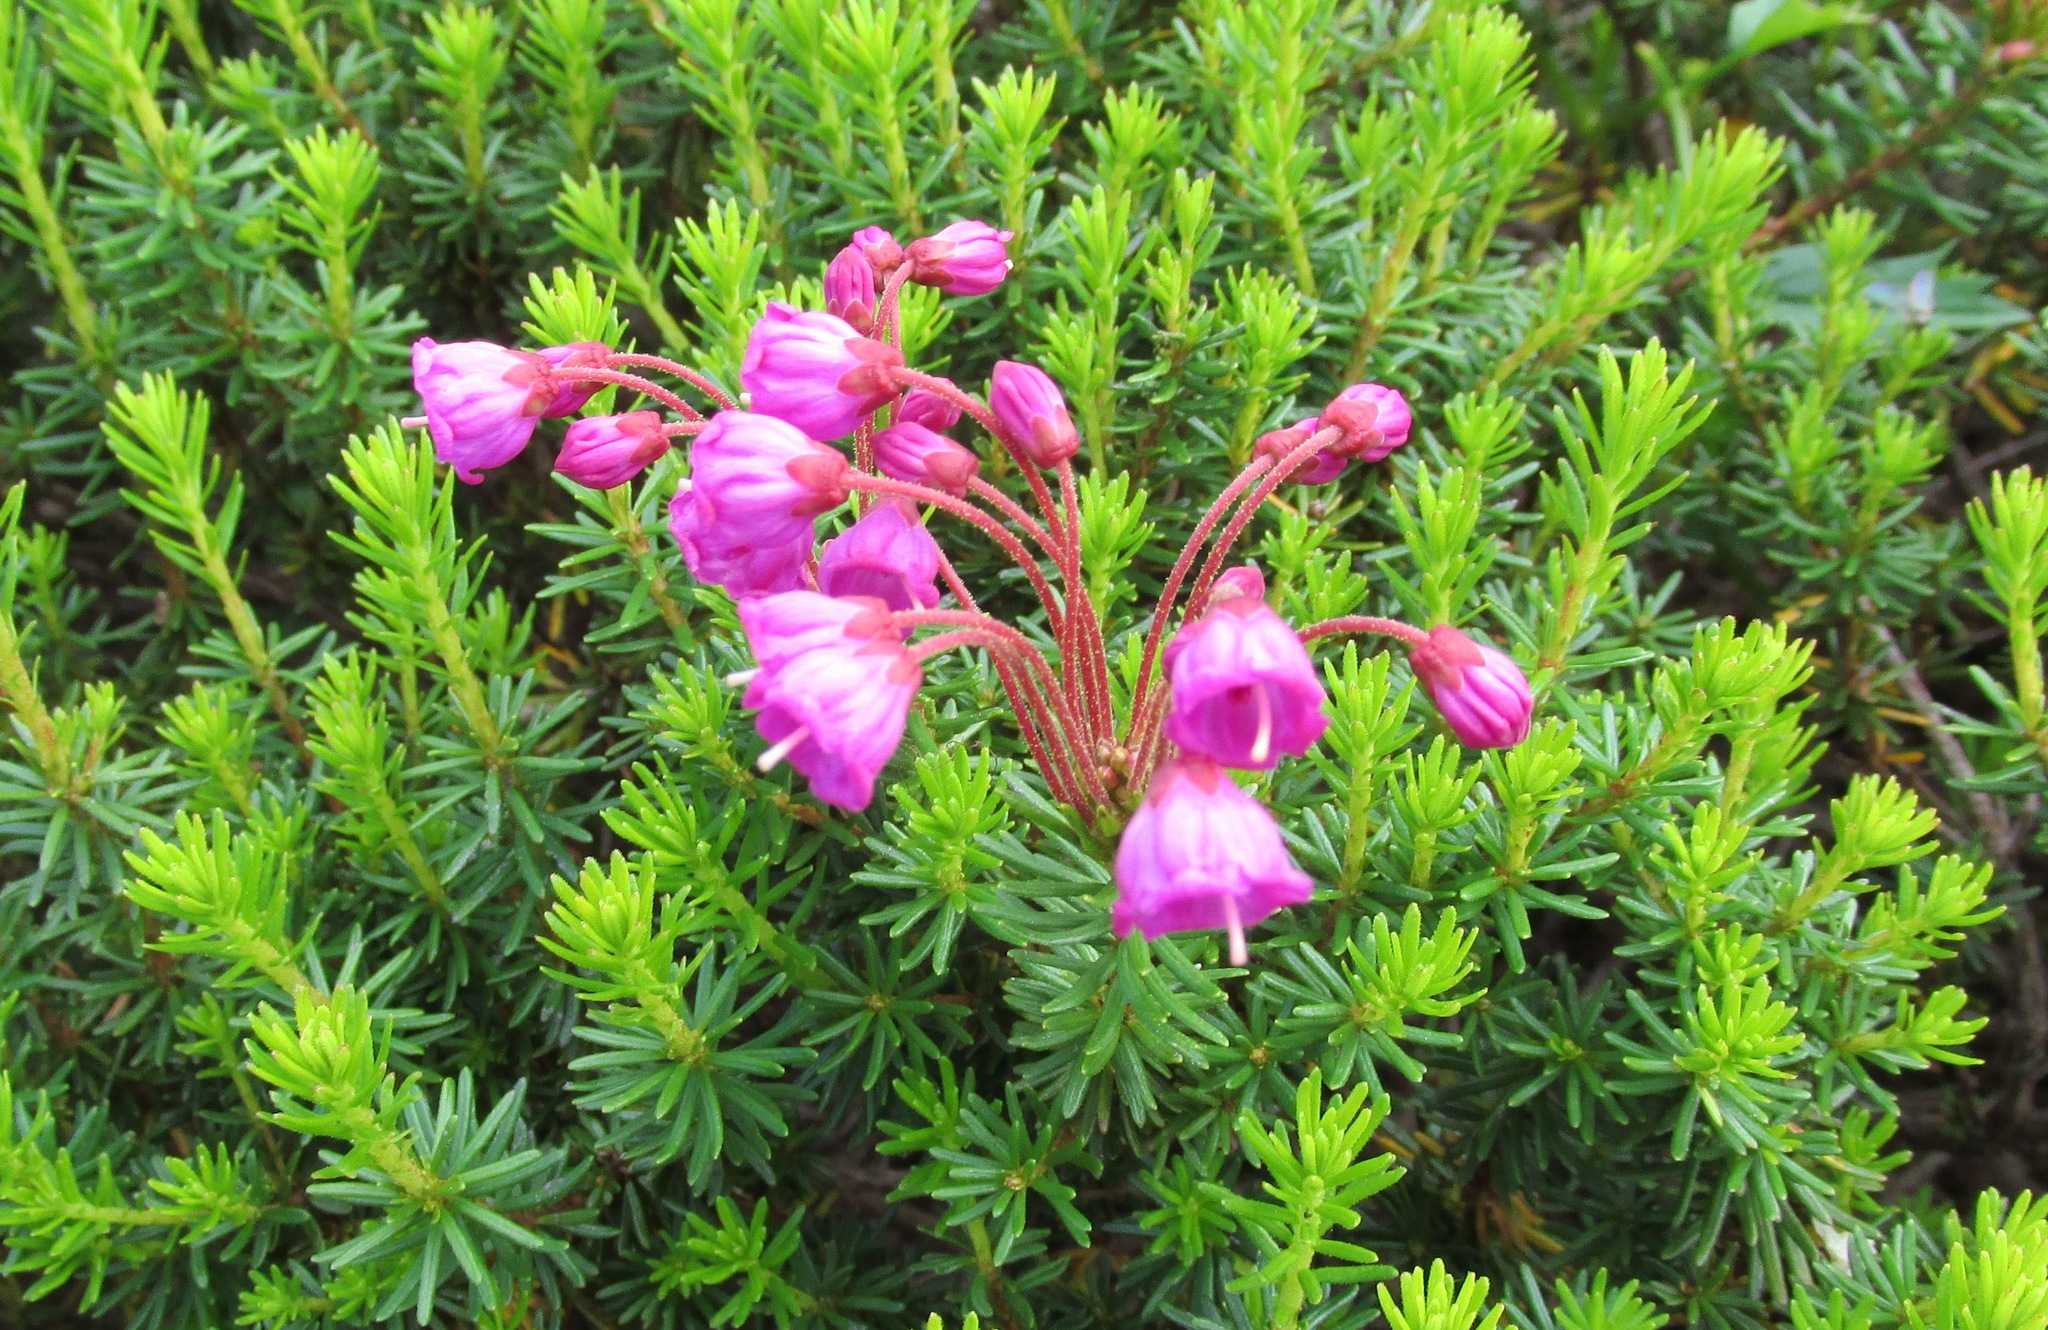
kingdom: Plantae
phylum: Tracheophyta
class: Magnoliopsida
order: Ericales
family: Ericaceae
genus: Phyllodoce
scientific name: Phyllodoce empetriformis
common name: Pink mountain heather
